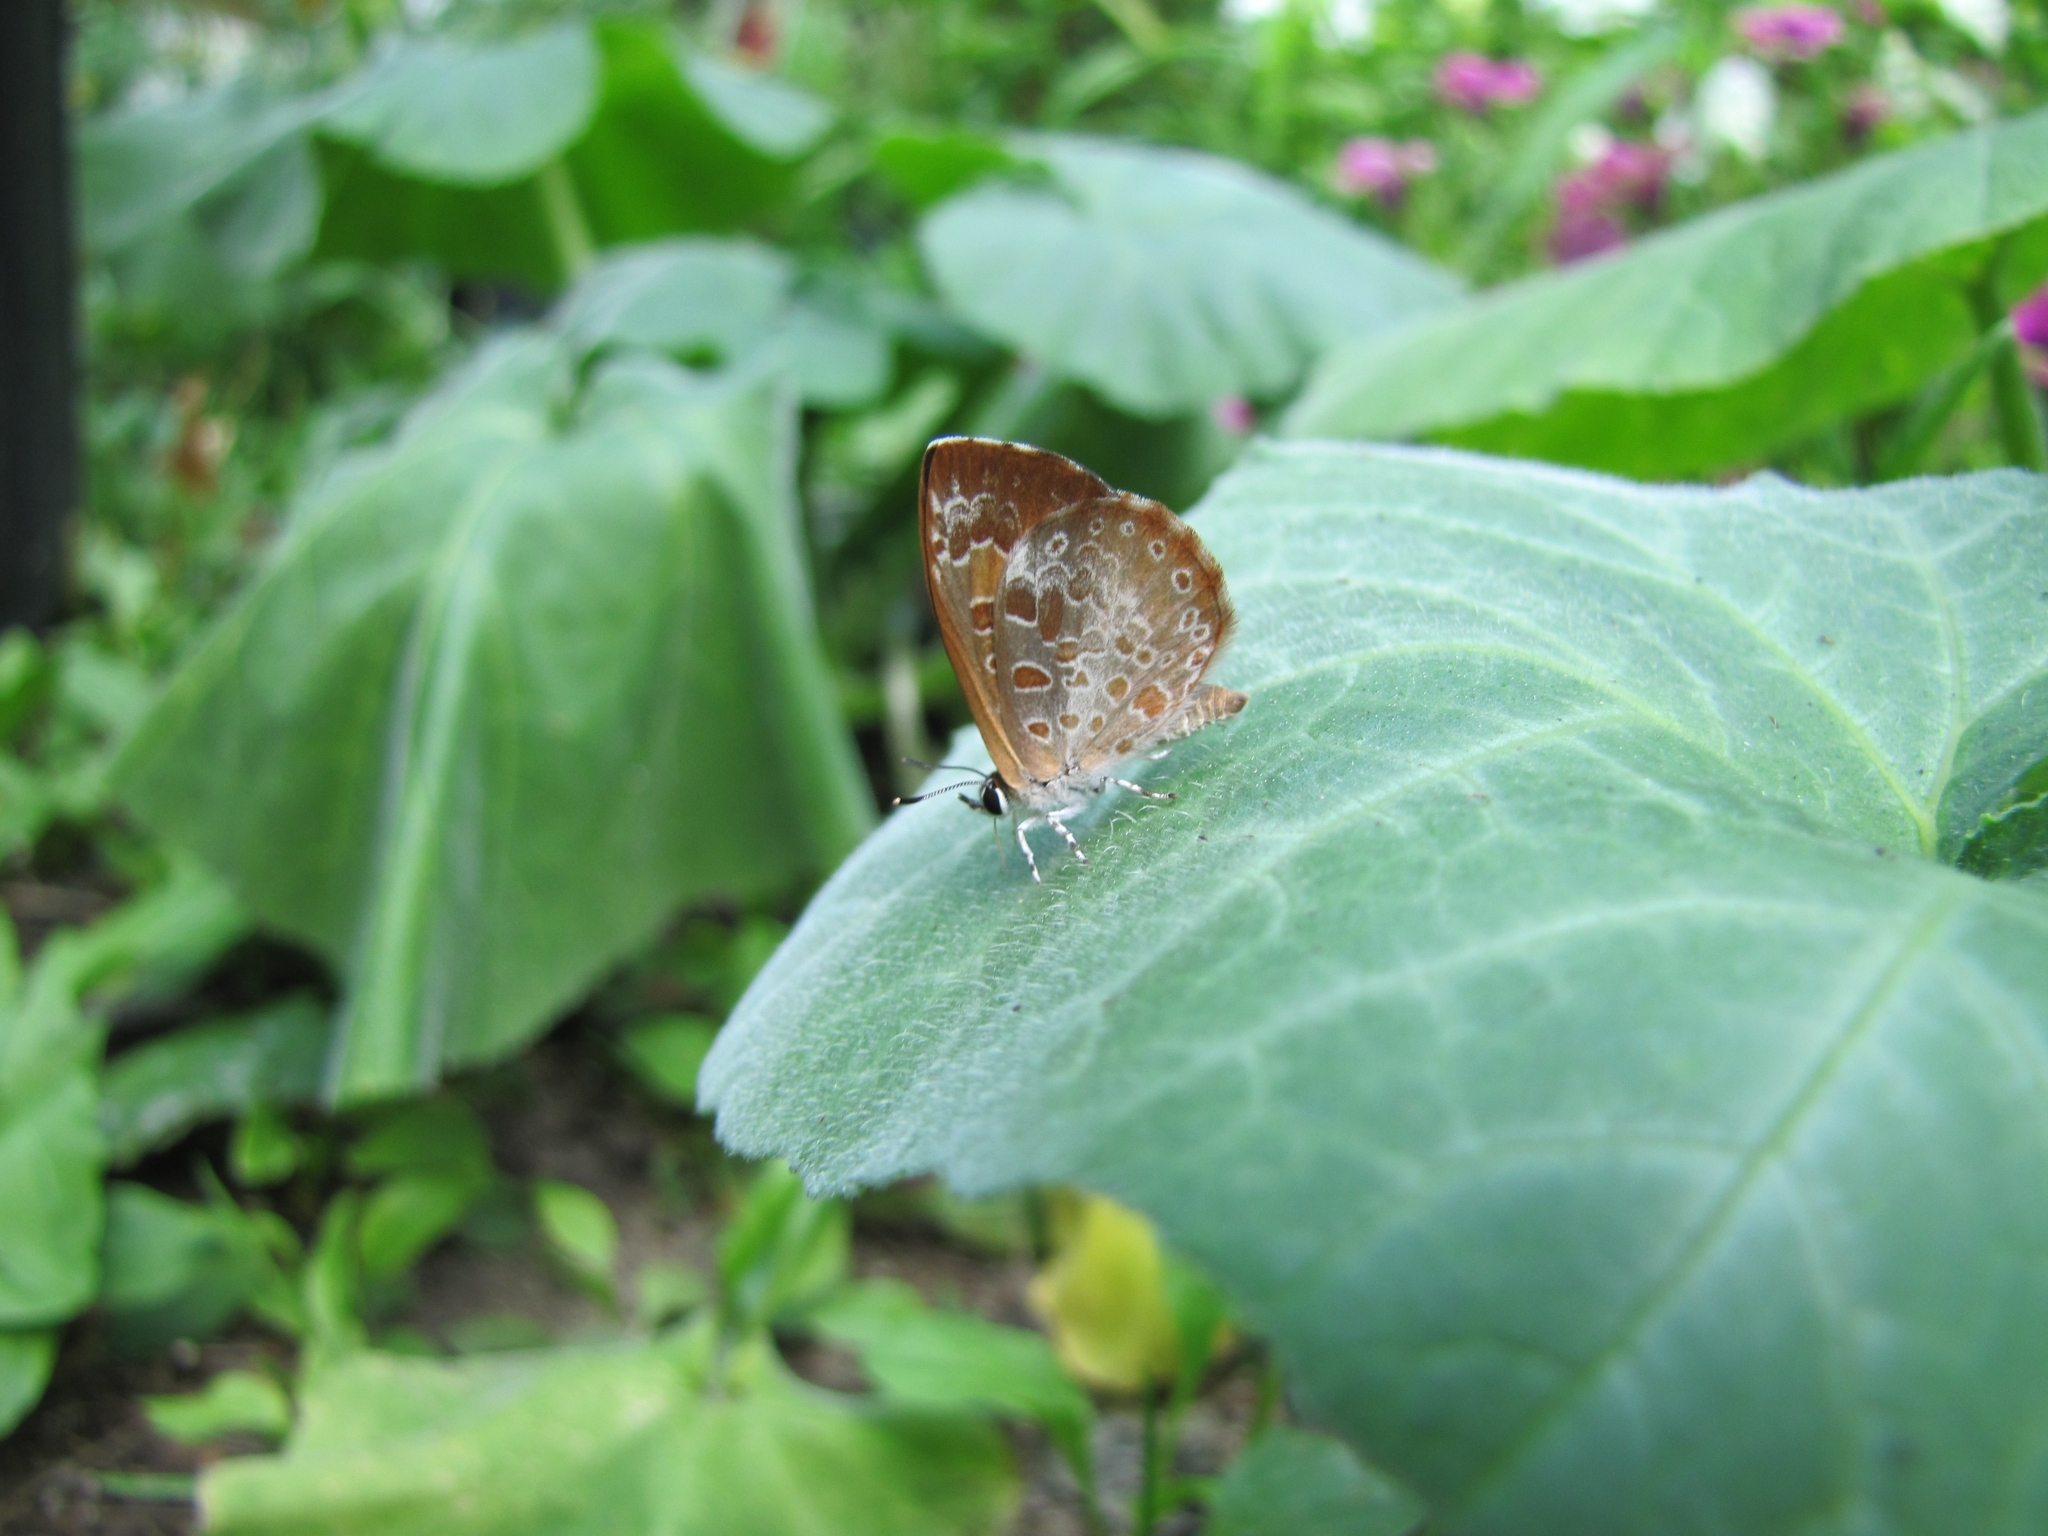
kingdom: Animalia
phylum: Arthropoda
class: Insecta
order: Lepidoptera
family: Lycaenidae
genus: Feniseca
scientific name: Feniseca tarquinius
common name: Harvester
